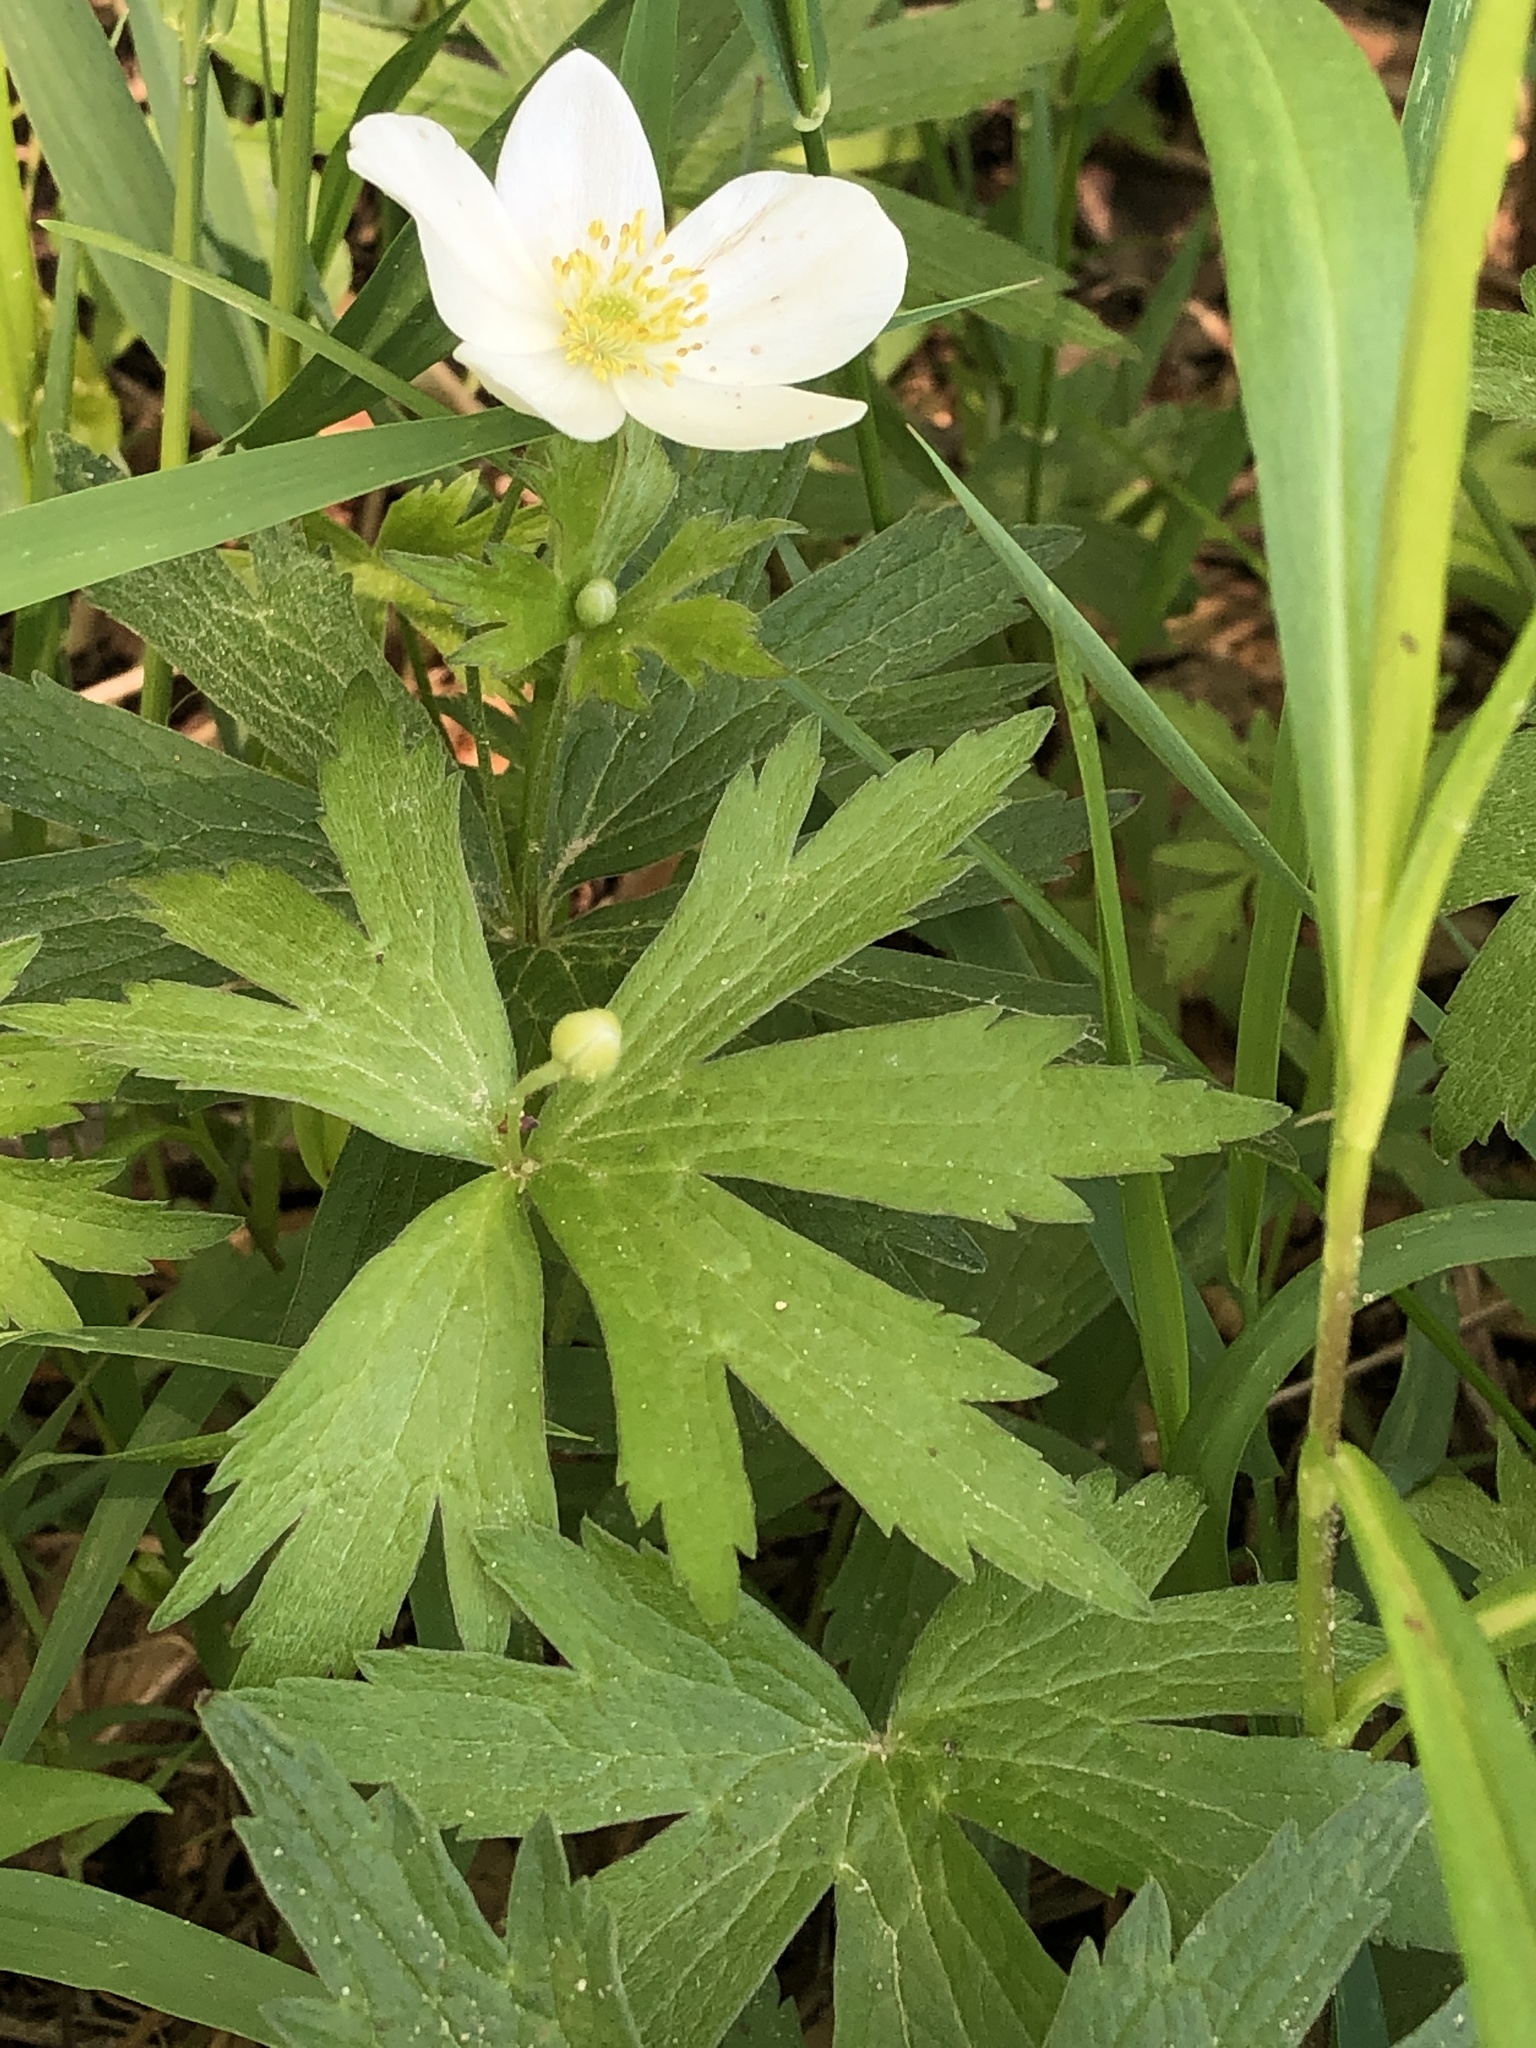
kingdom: Plantae
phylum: Tracheophyta
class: Magnoliopsida
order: Ranunculales
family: Ranunculaceae
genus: Anemonastrum
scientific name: Anemonastrum canadense
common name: Canada anemone
